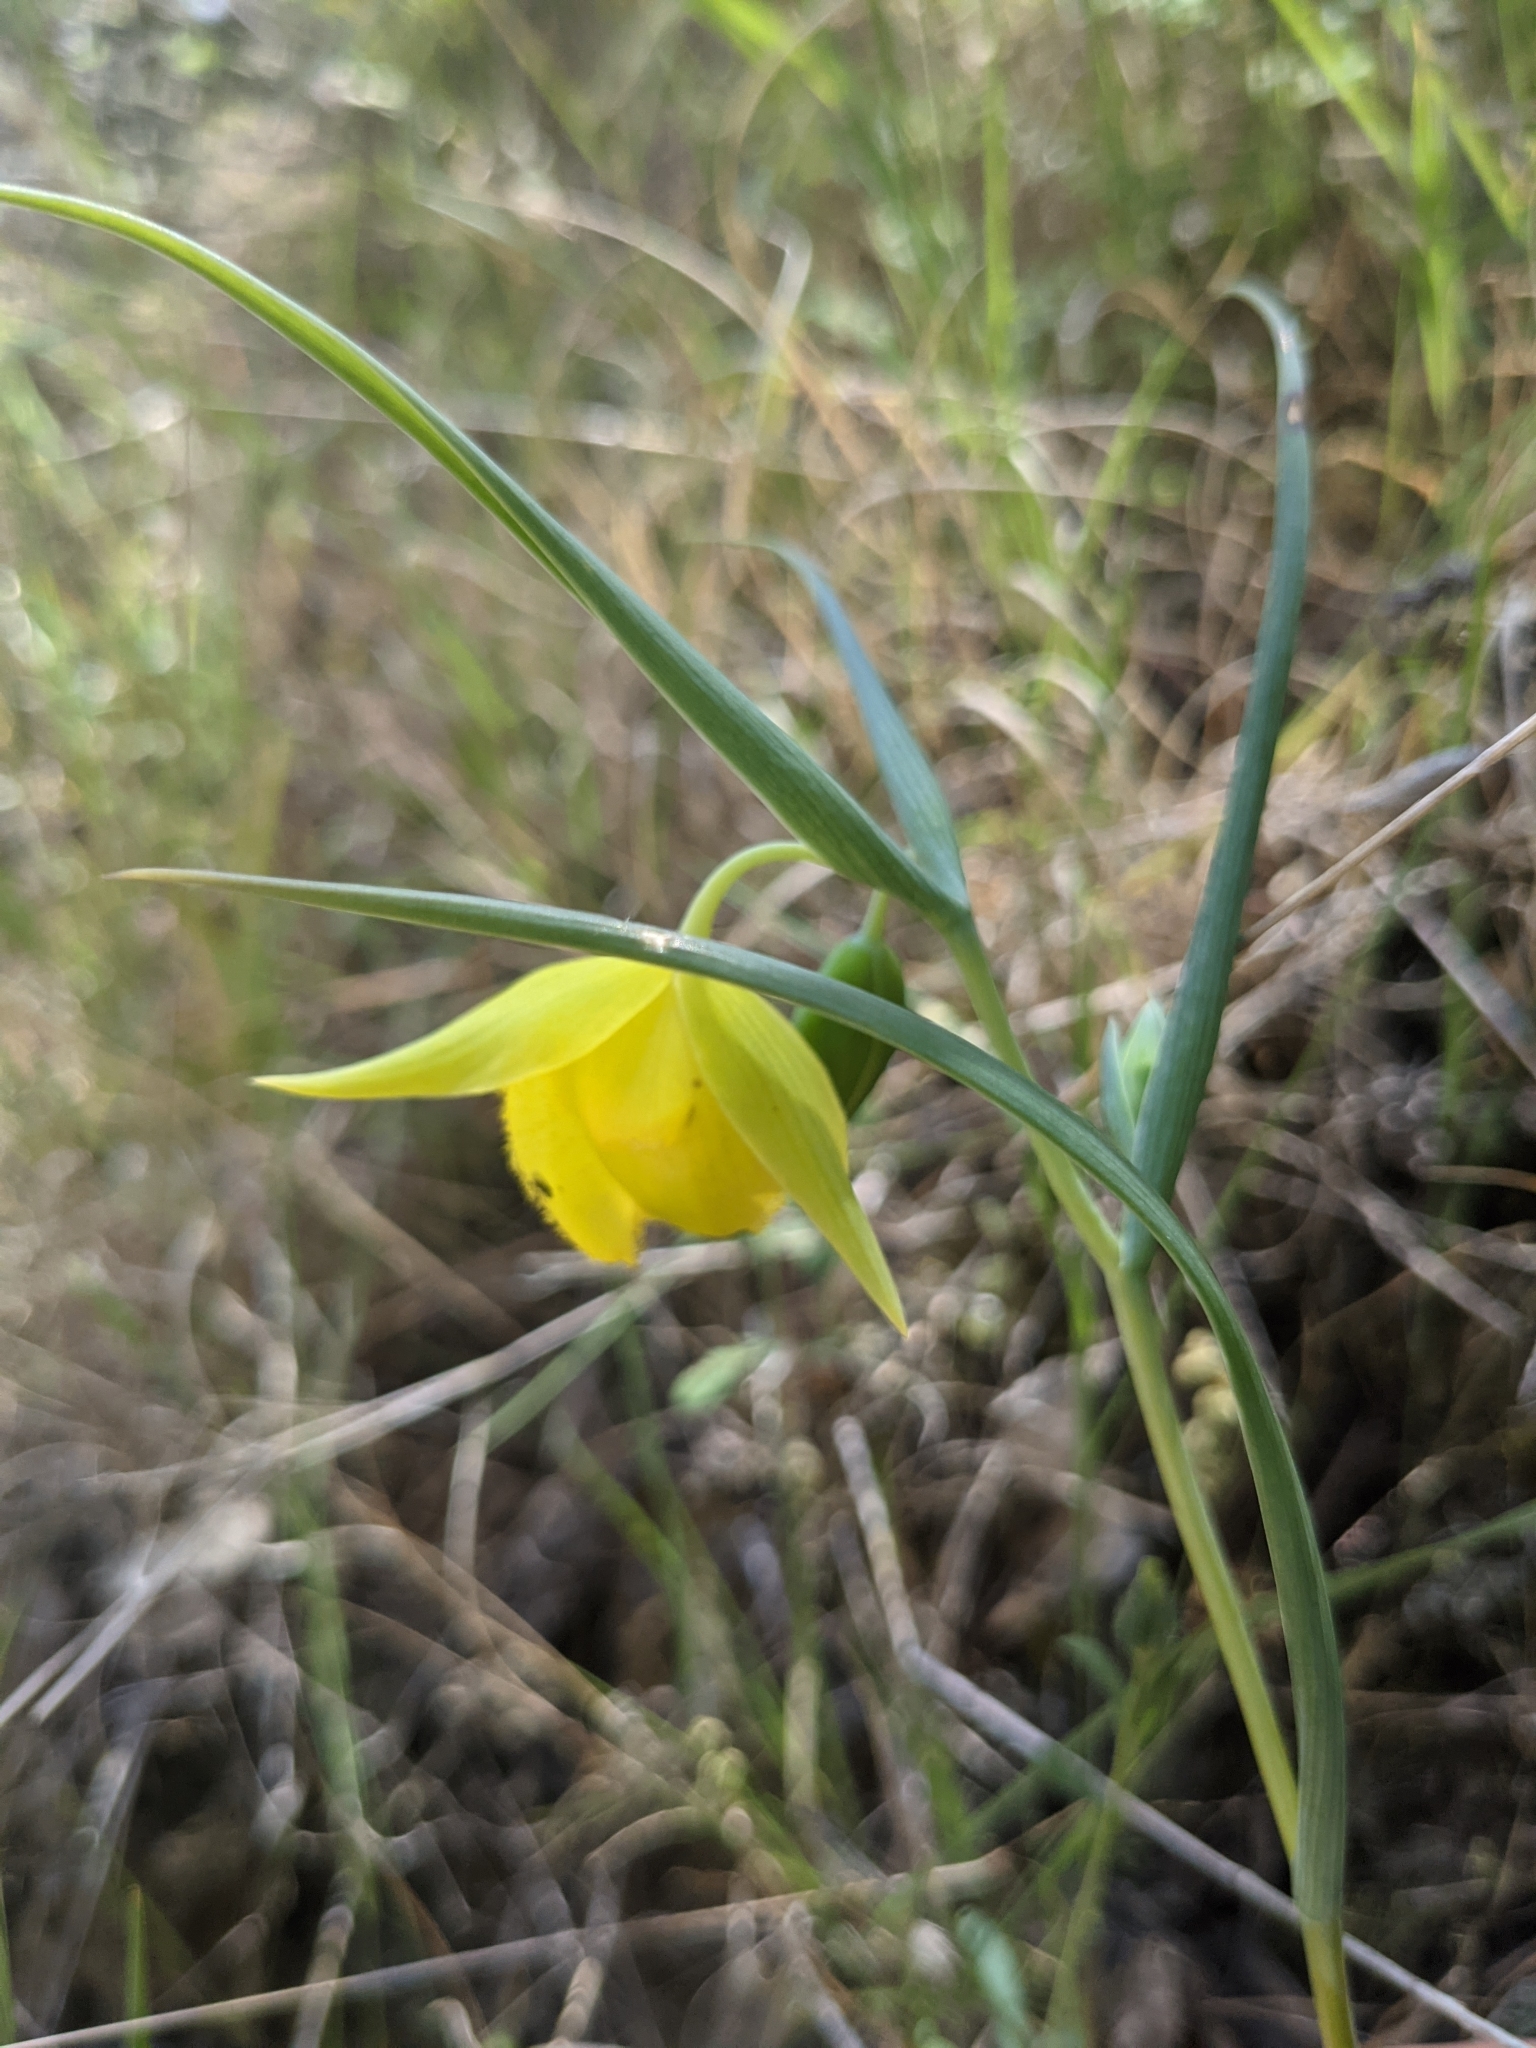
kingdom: Plantae
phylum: Tracheophyta
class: Liliopsida
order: Liliales
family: Liliaceae
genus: Calochortus
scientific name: Calochortus pulchellus
